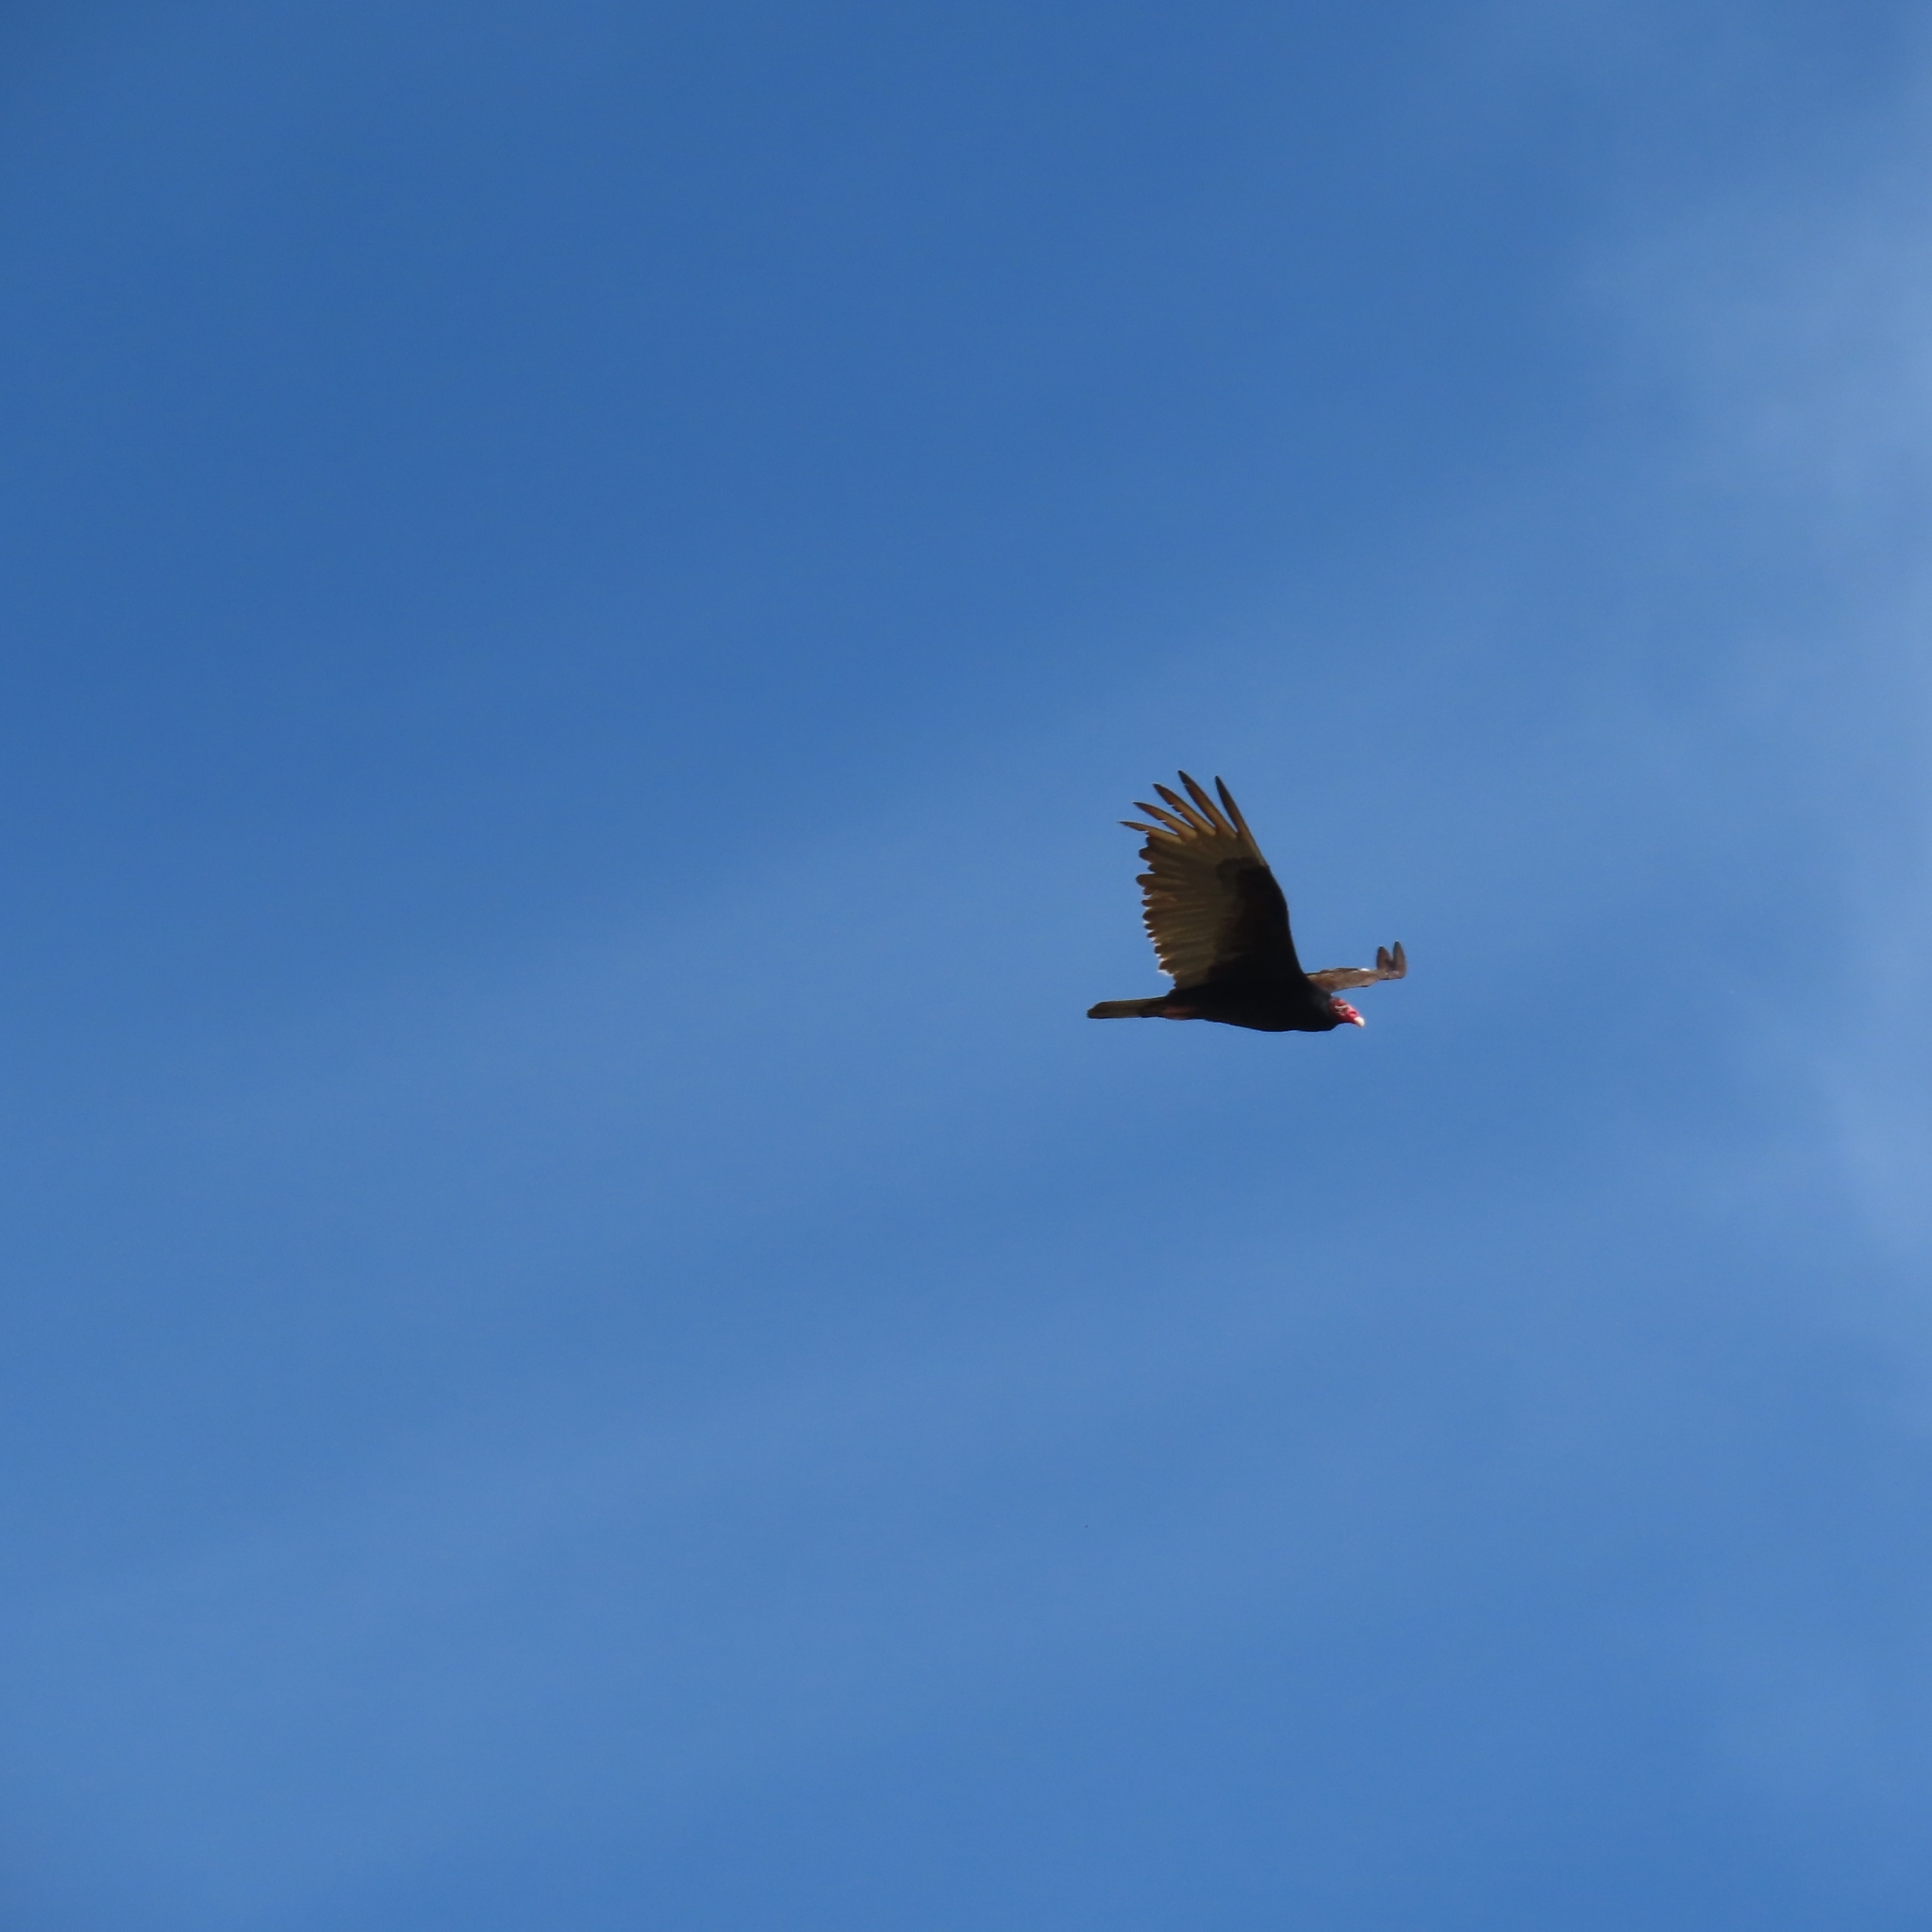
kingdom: Animalia
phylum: Chordata
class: Aves
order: Accipitriformes
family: Cathartidae
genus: Cathartes
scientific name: Cathartes aura
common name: Turkey vulture
